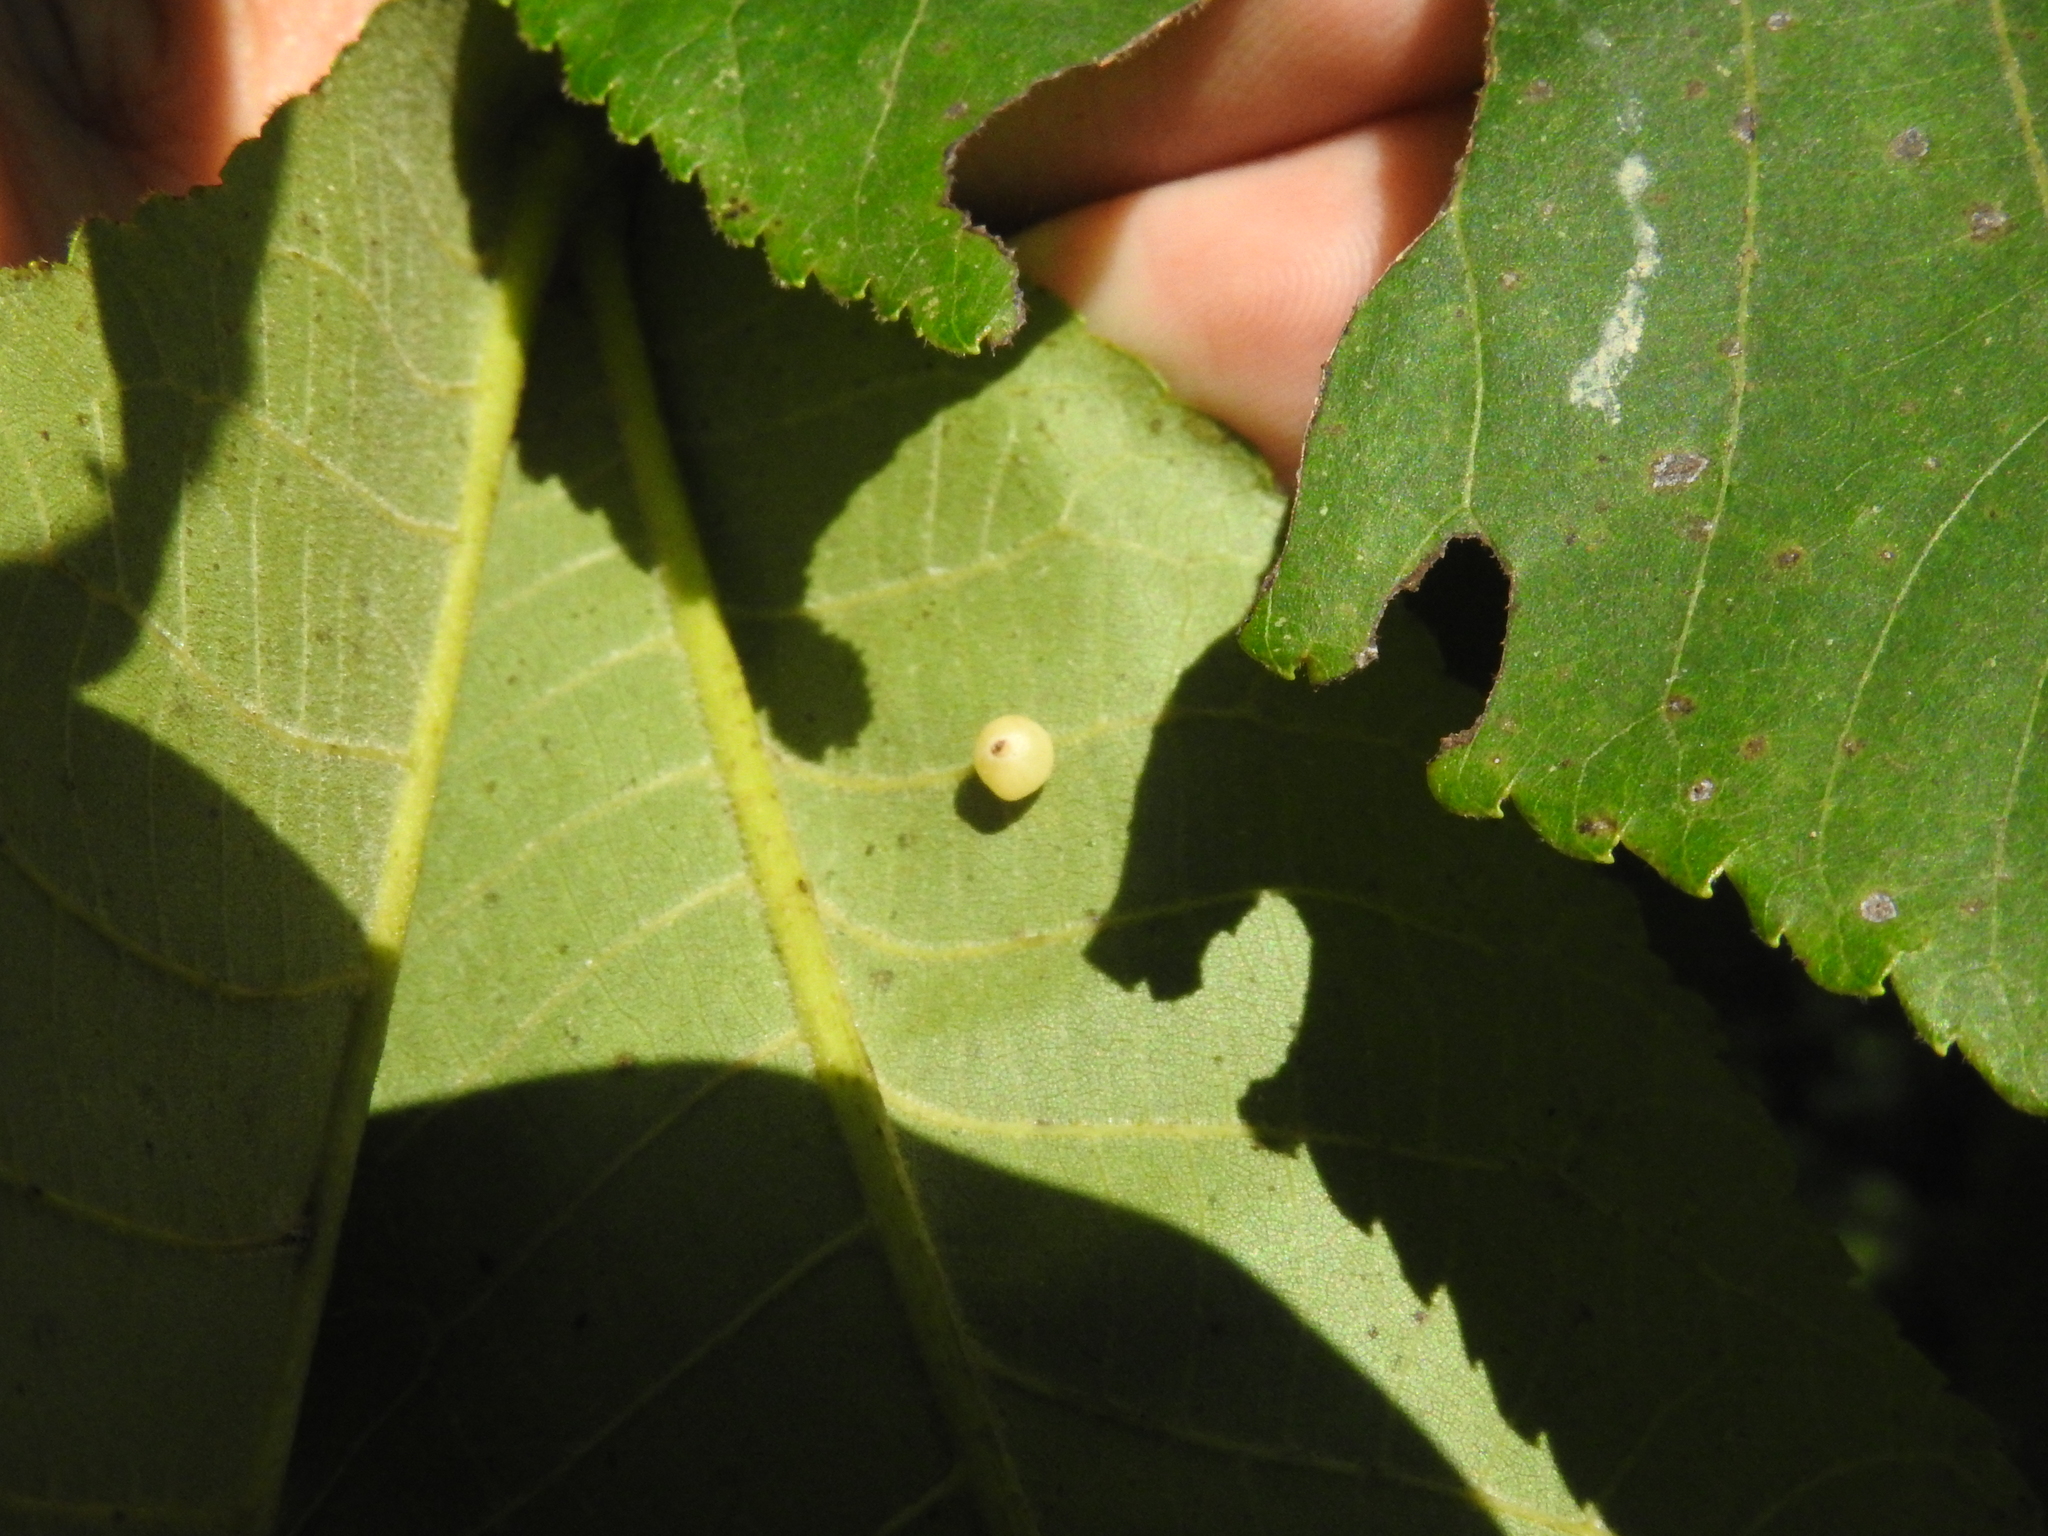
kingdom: Animalia
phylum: Arthropoda
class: Insecta
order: Diptera
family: Cecidomyiidae
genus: Caryomyia
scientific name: Caryomyia caryae
